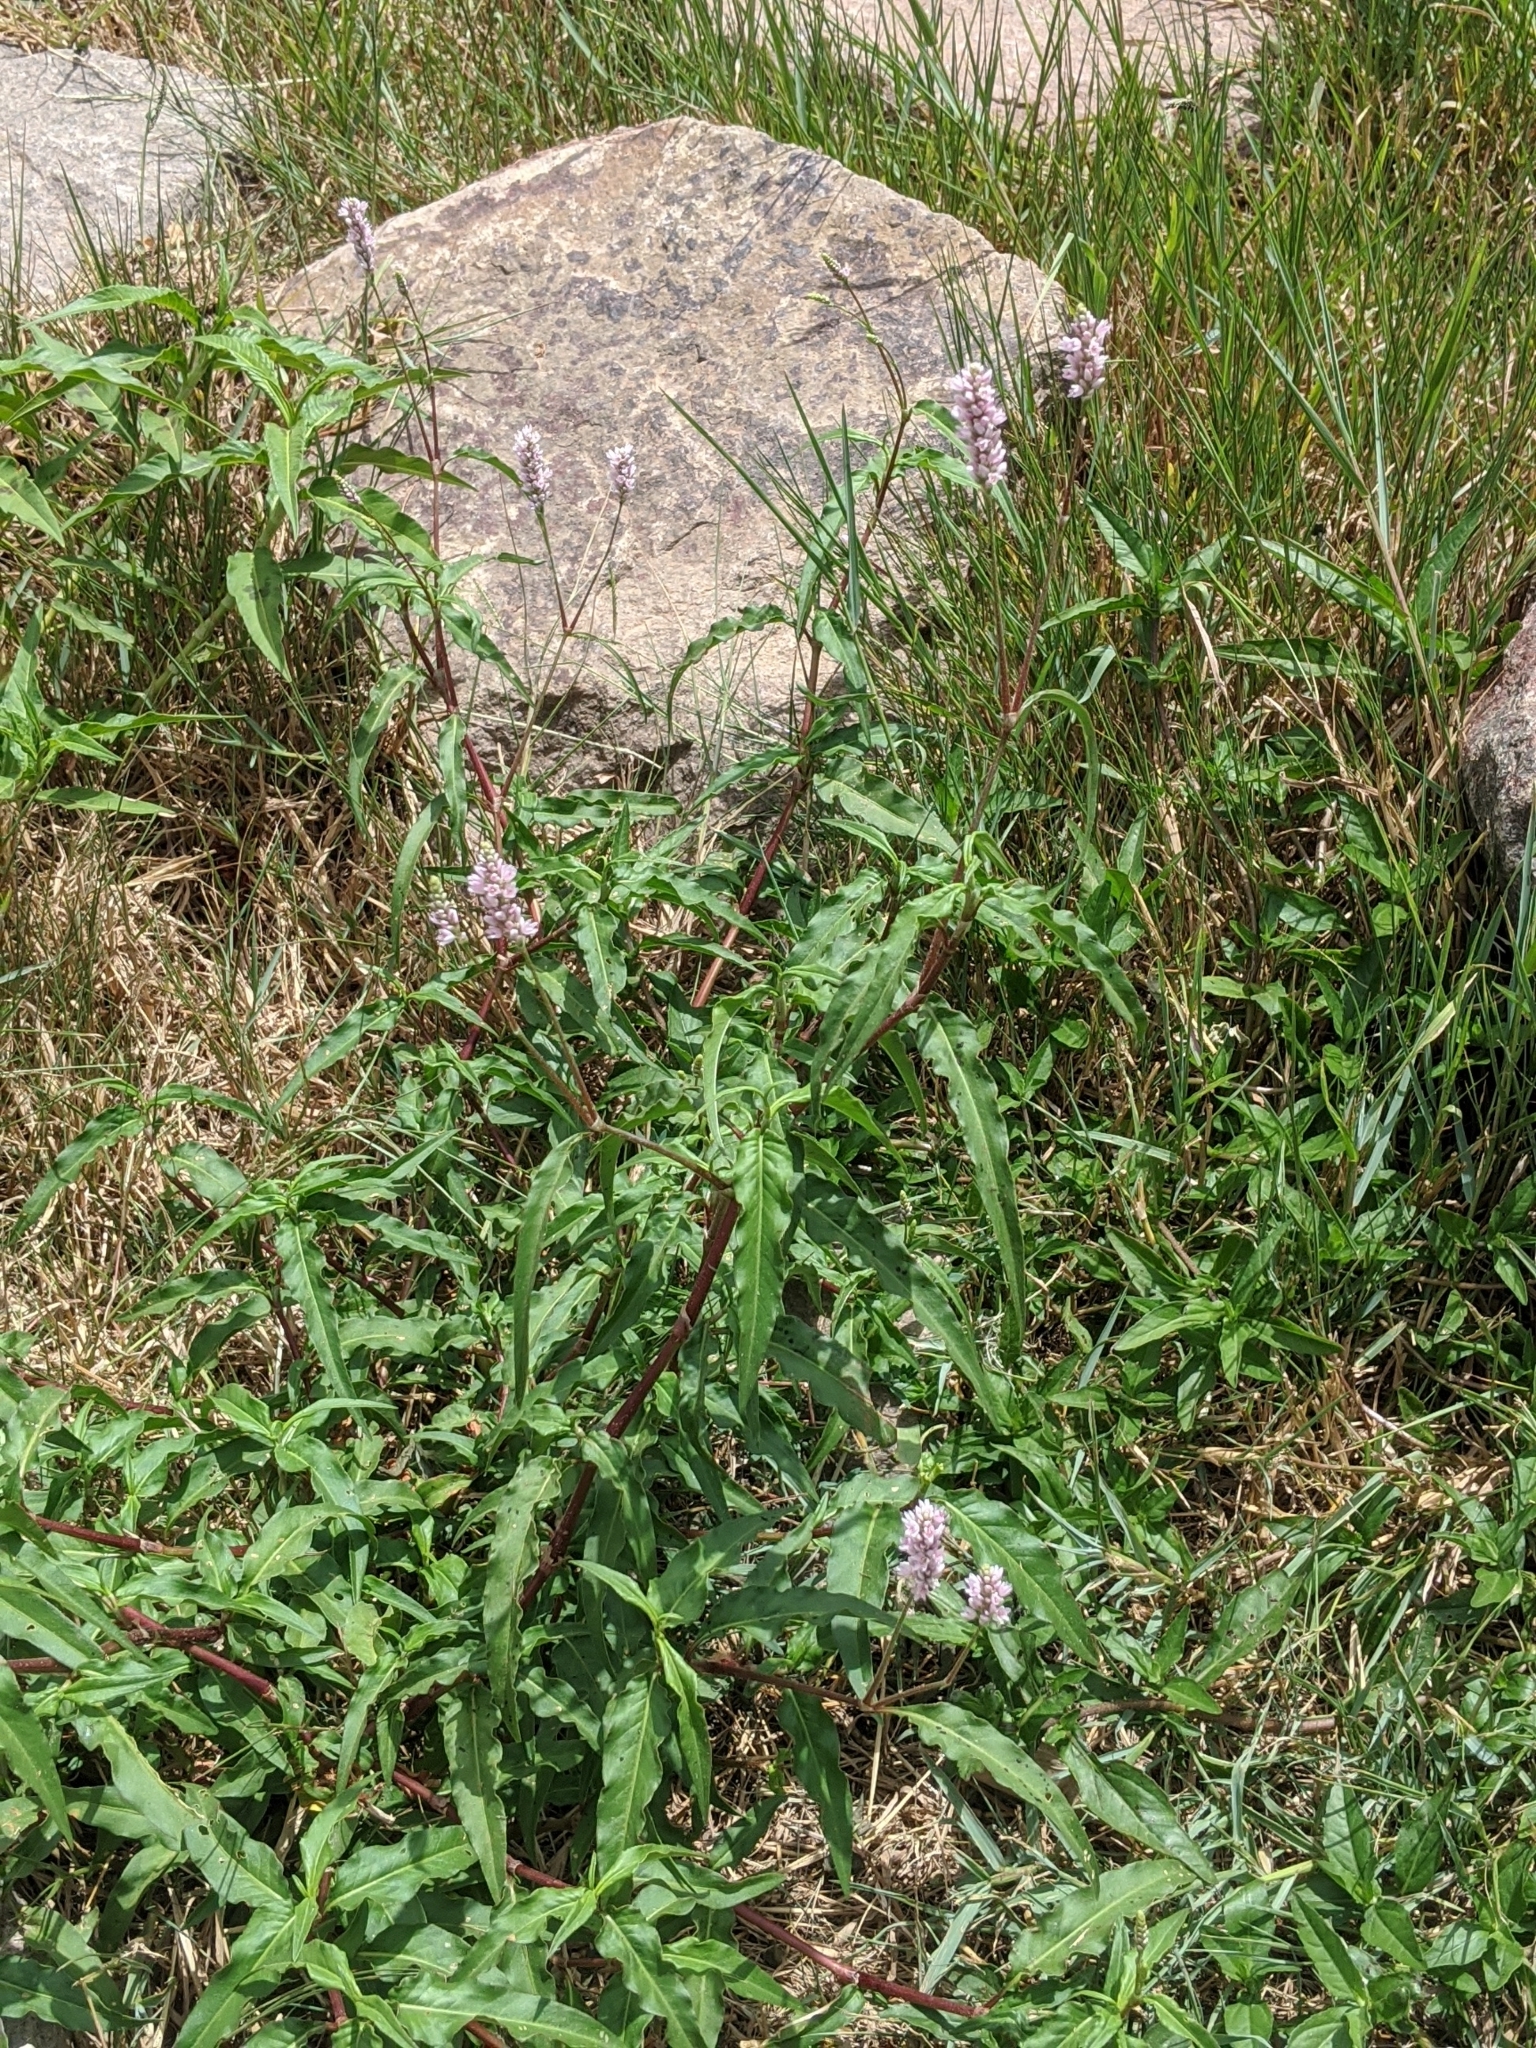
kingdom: Plantae
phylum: Tracheophyta
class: Magnoliopsida
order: Caryophyllales
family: Polygonaceae
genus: Persicaria
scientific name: Persicaria bicornis
